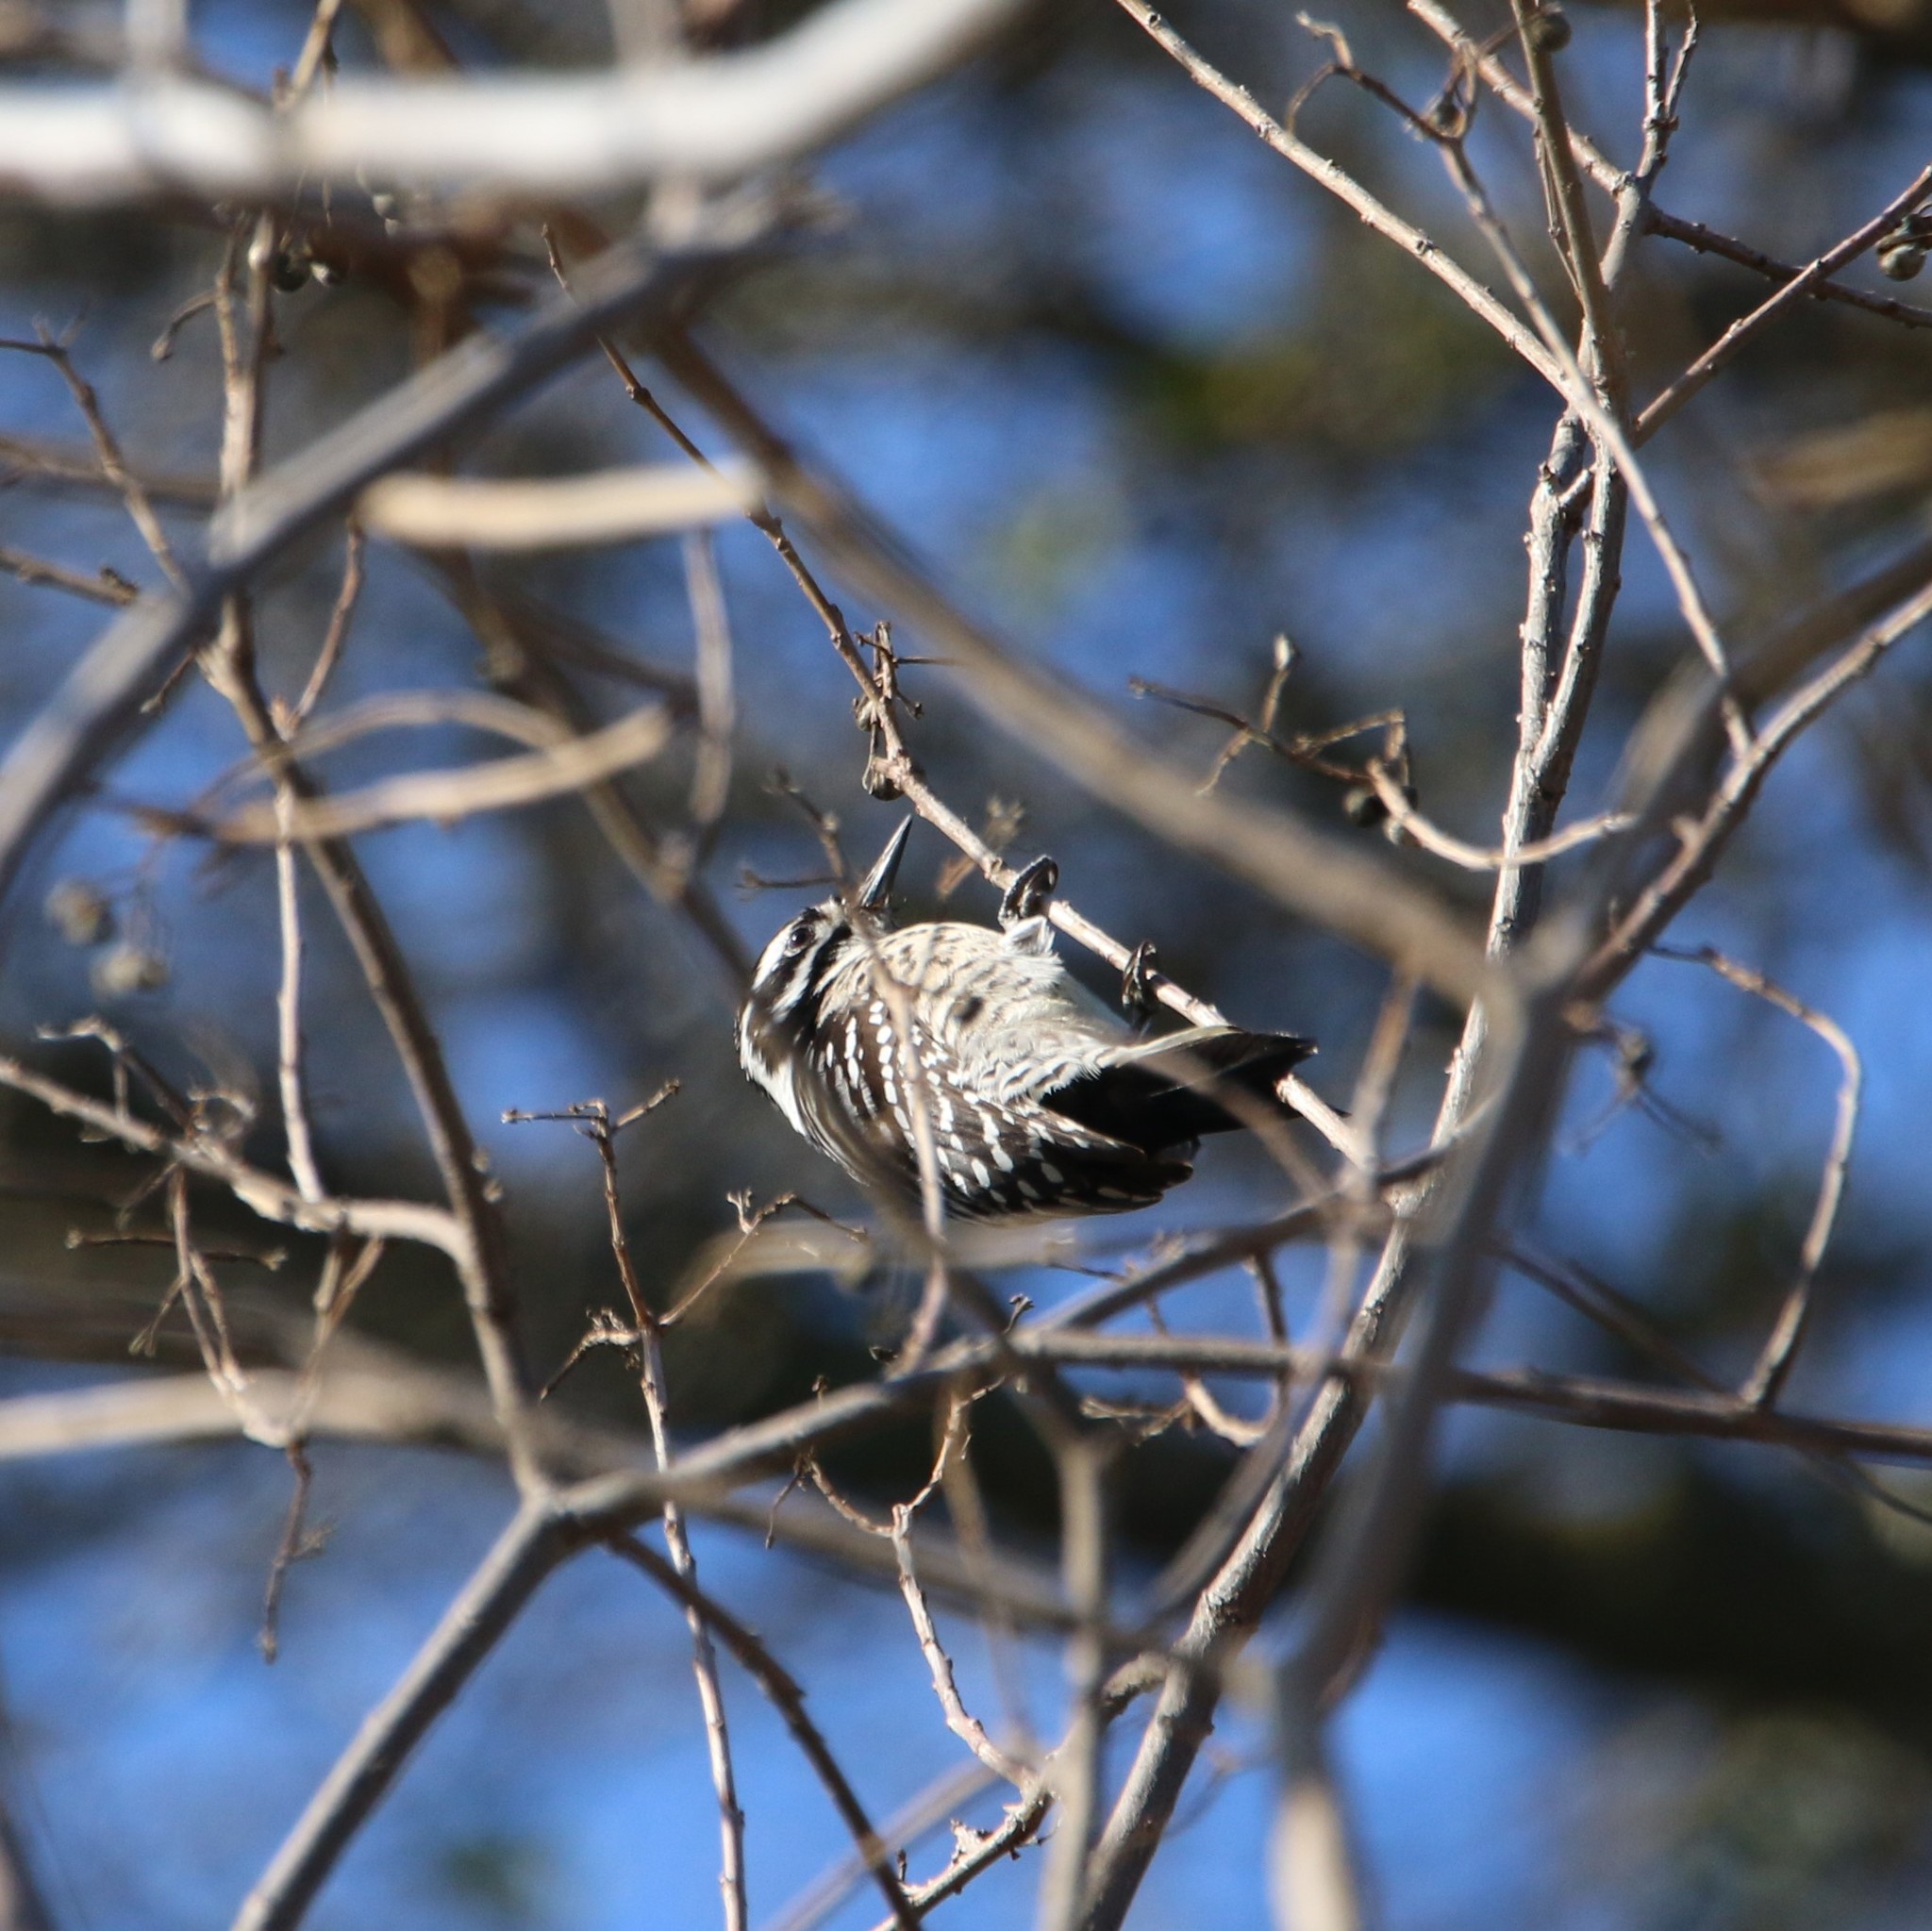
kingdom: Animalia
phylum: Chordata
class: Aves
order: Piciformes
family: Picidae
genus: Dryobates
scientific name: Dryobates nuttallii
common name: Nuttall's woodpecker
